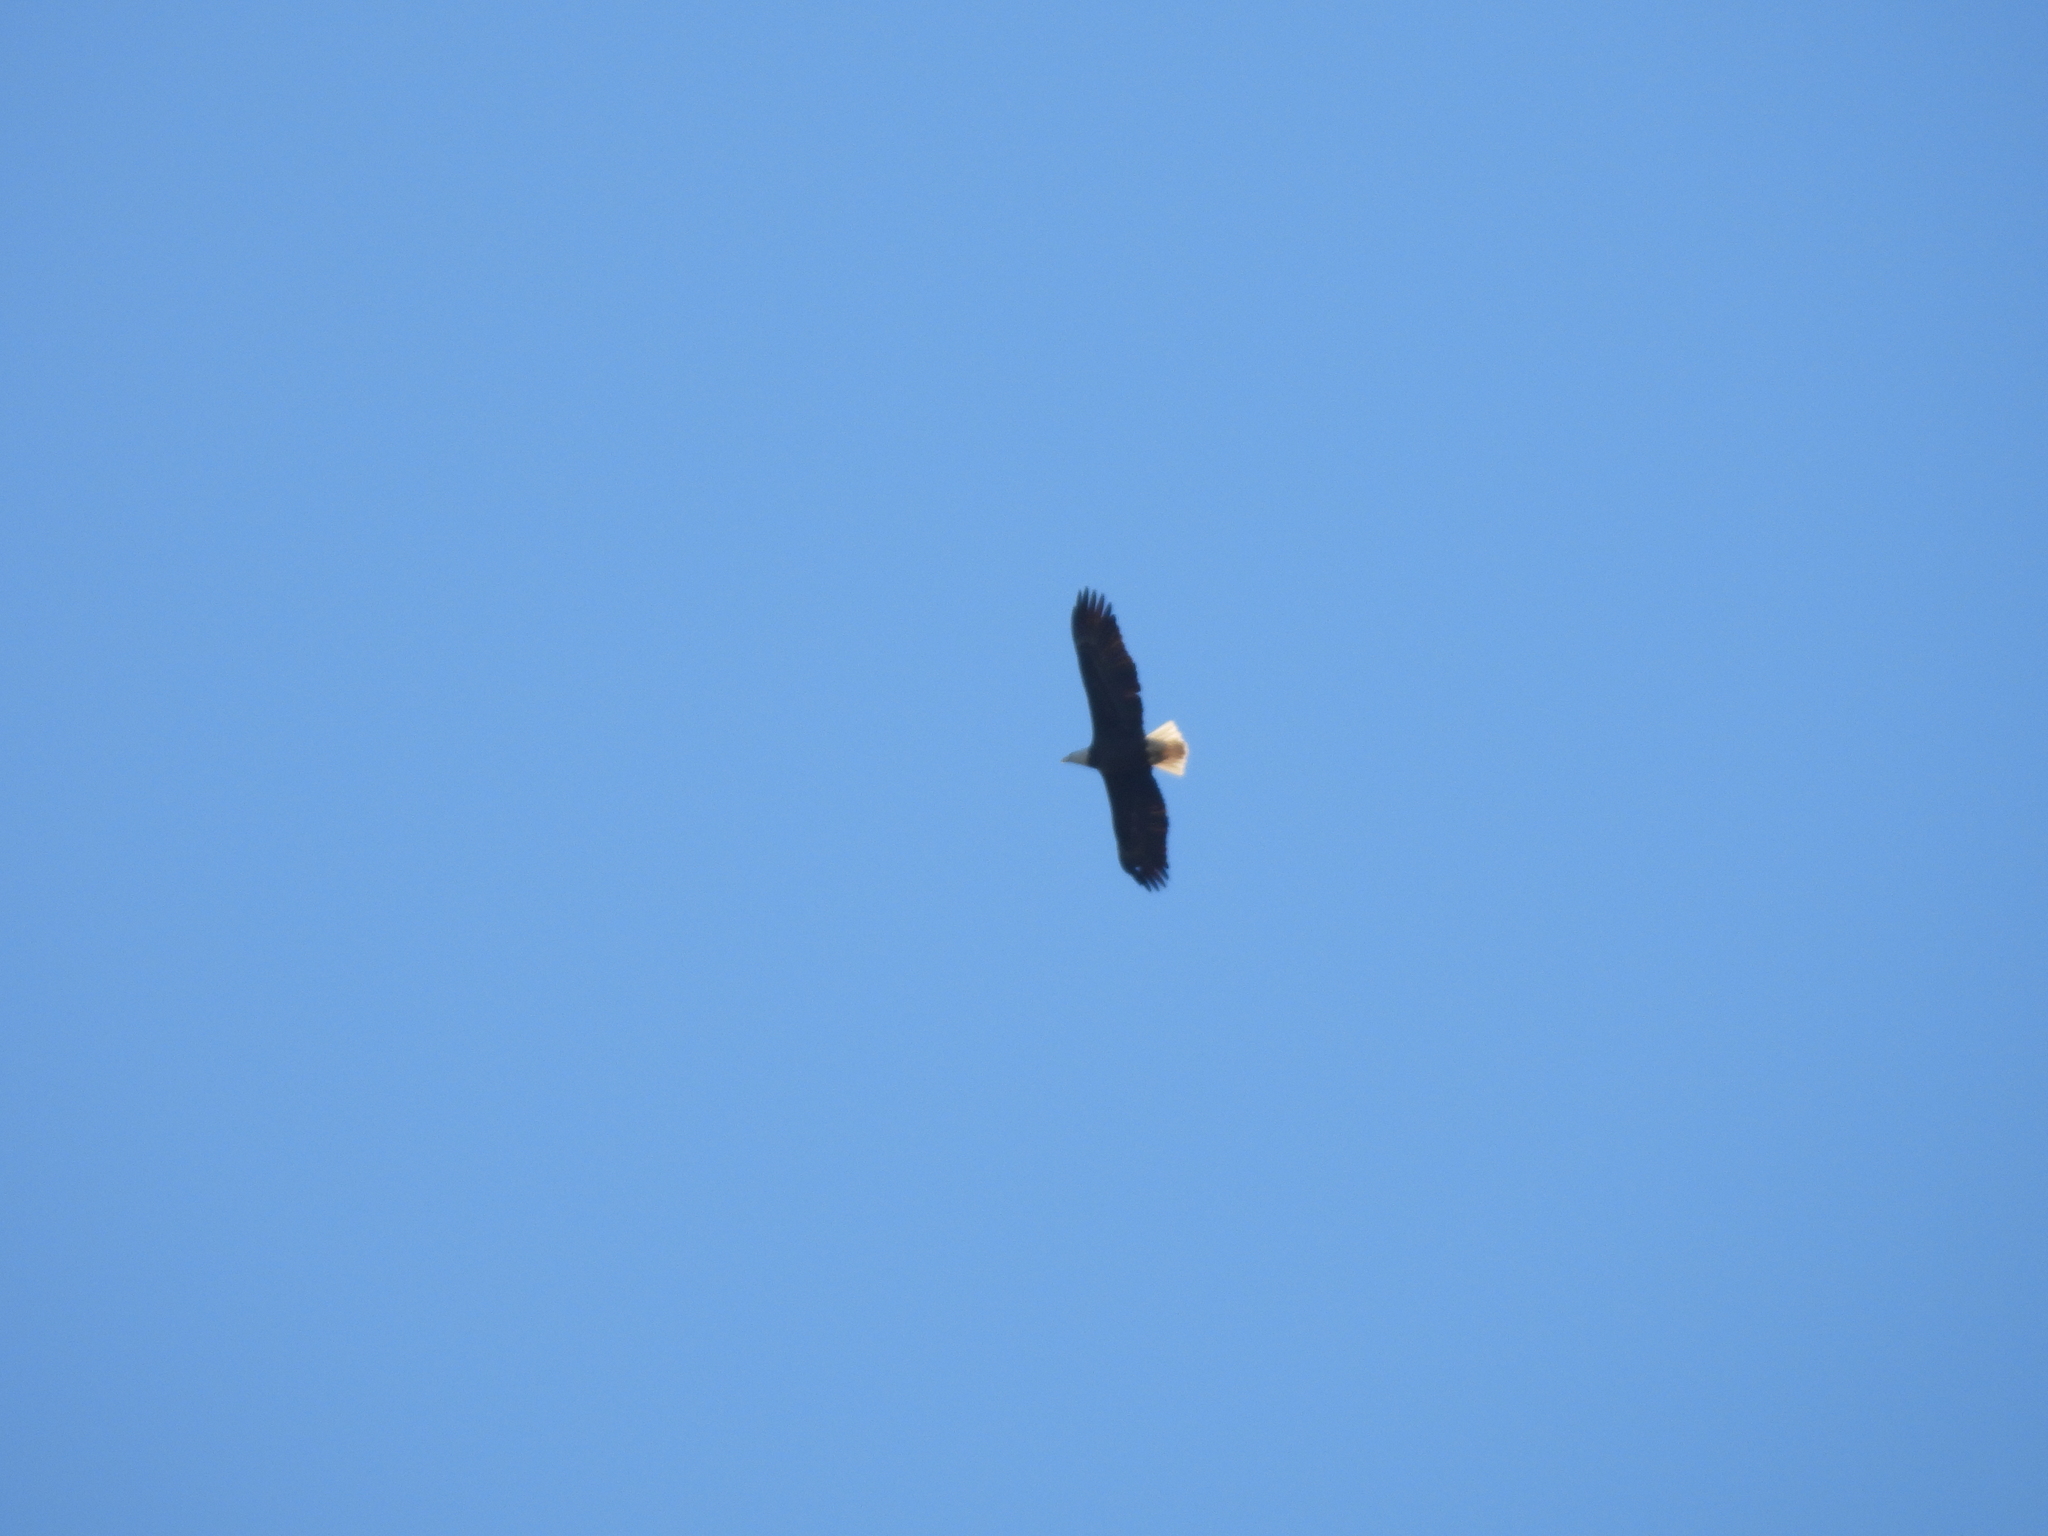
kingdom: Animalia
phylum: Chordata
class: Aves
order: Accipitriformes
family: Accipitridae
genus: Haliaeetus
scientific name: Haliaeetus leucocephalus
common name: Bald eagle
